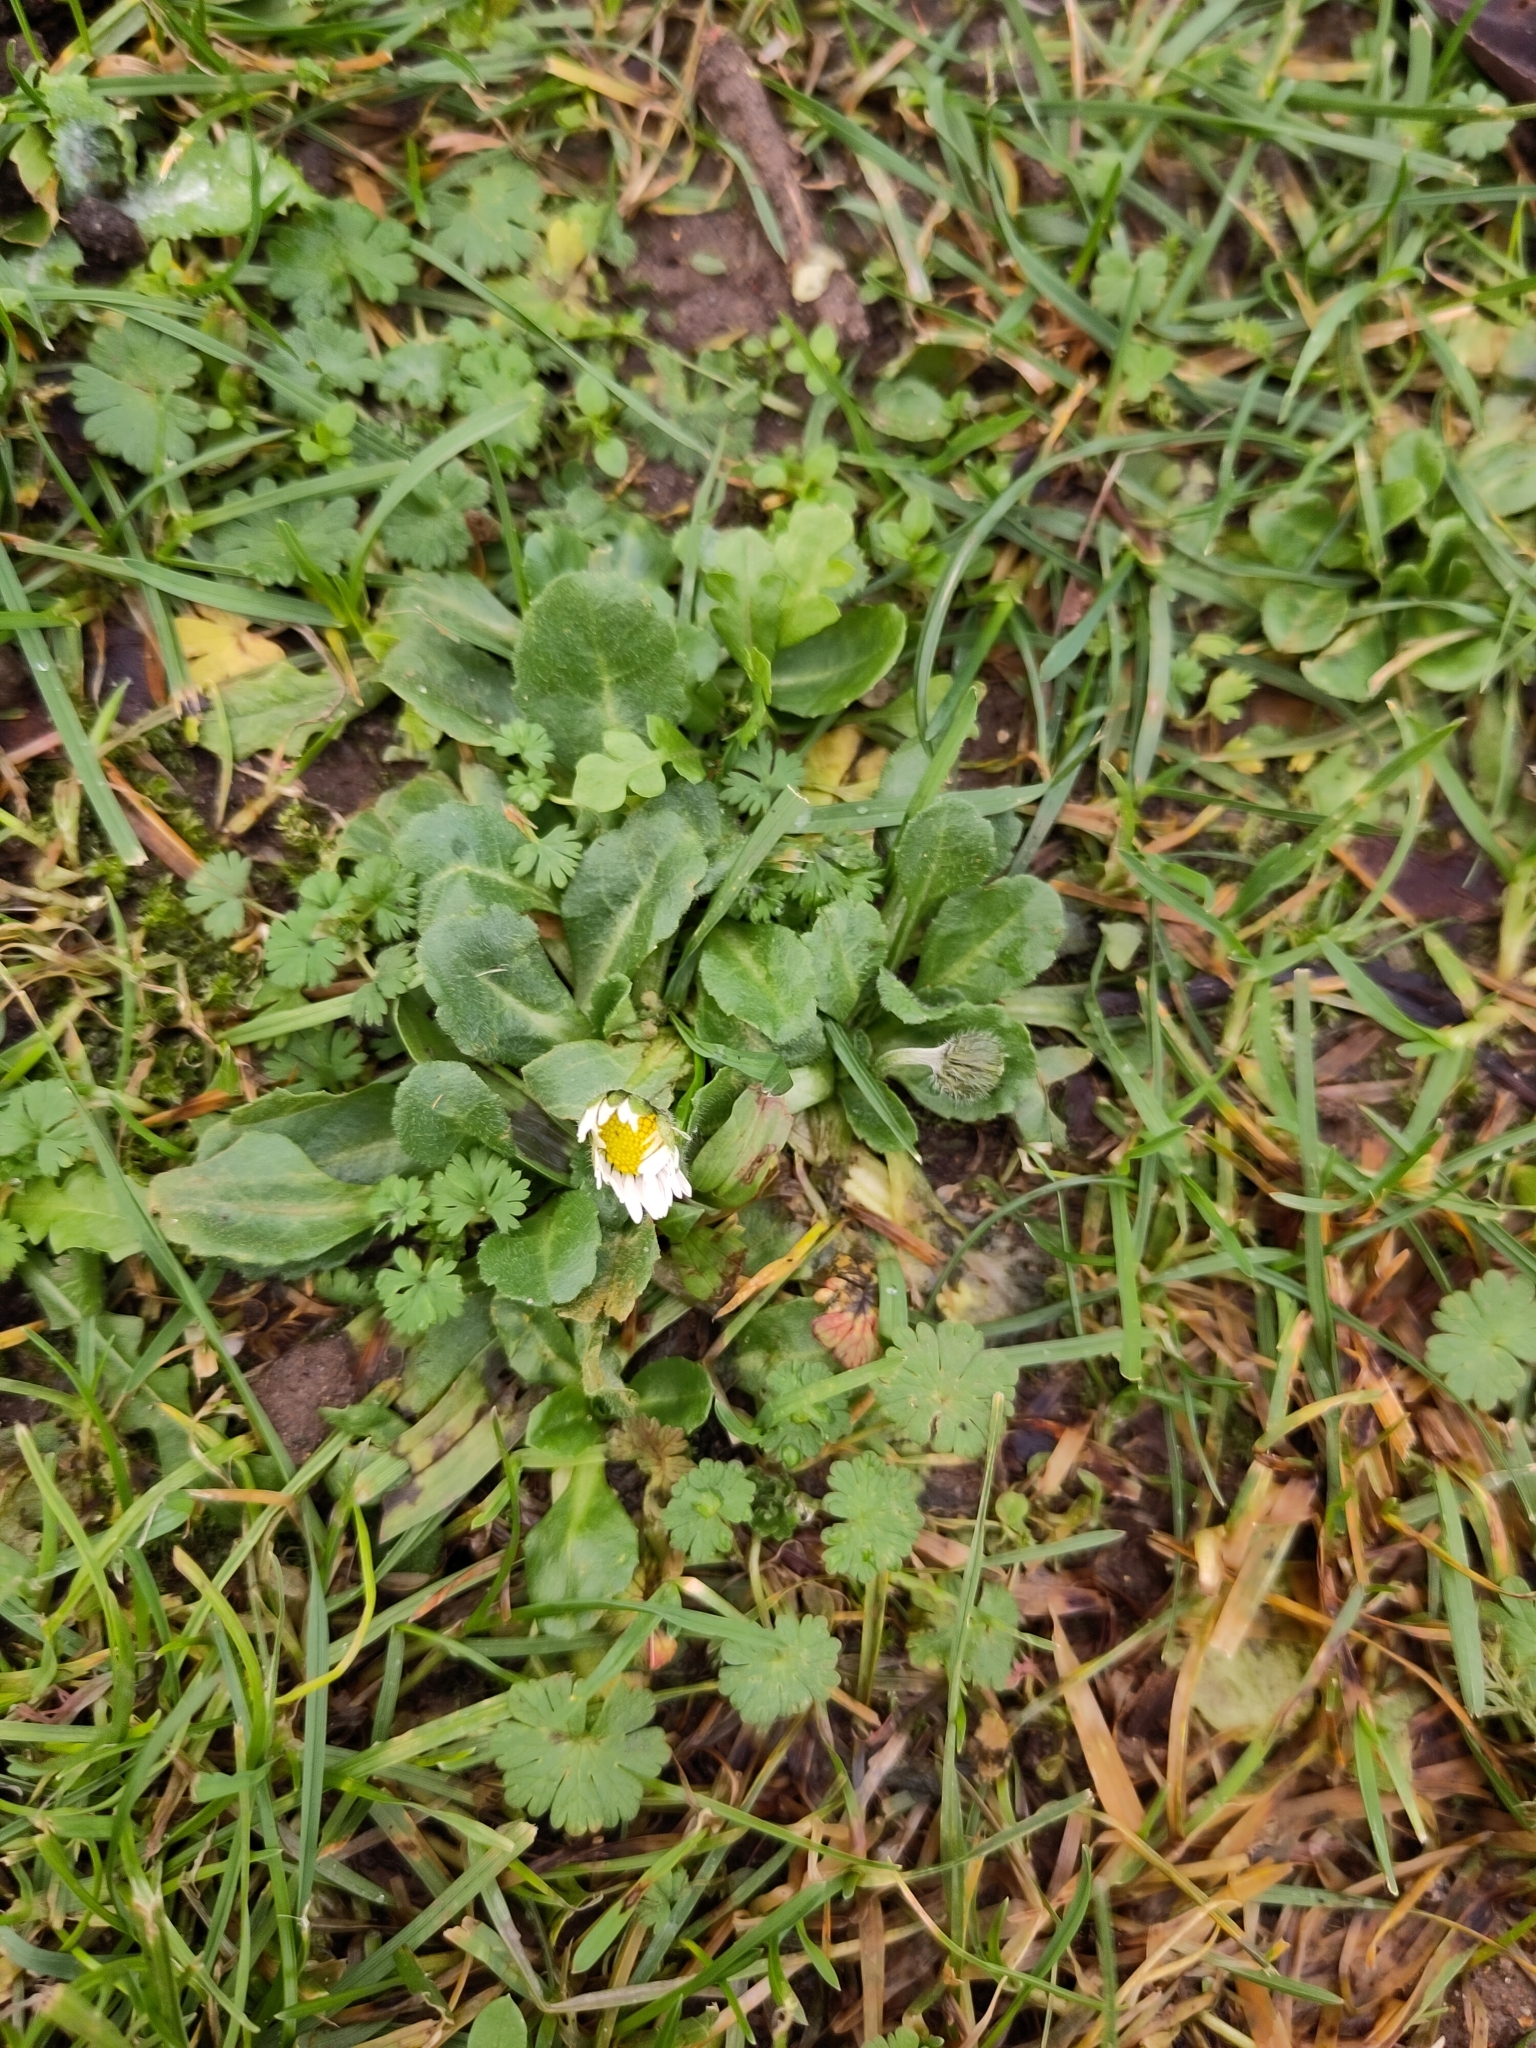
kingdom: Plantae
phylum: Tracheophyta
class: Magnoliopsida
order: Asterales
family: Asteraceae
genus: Bellis
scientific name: Bellis perennis
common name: Lawndaisy
